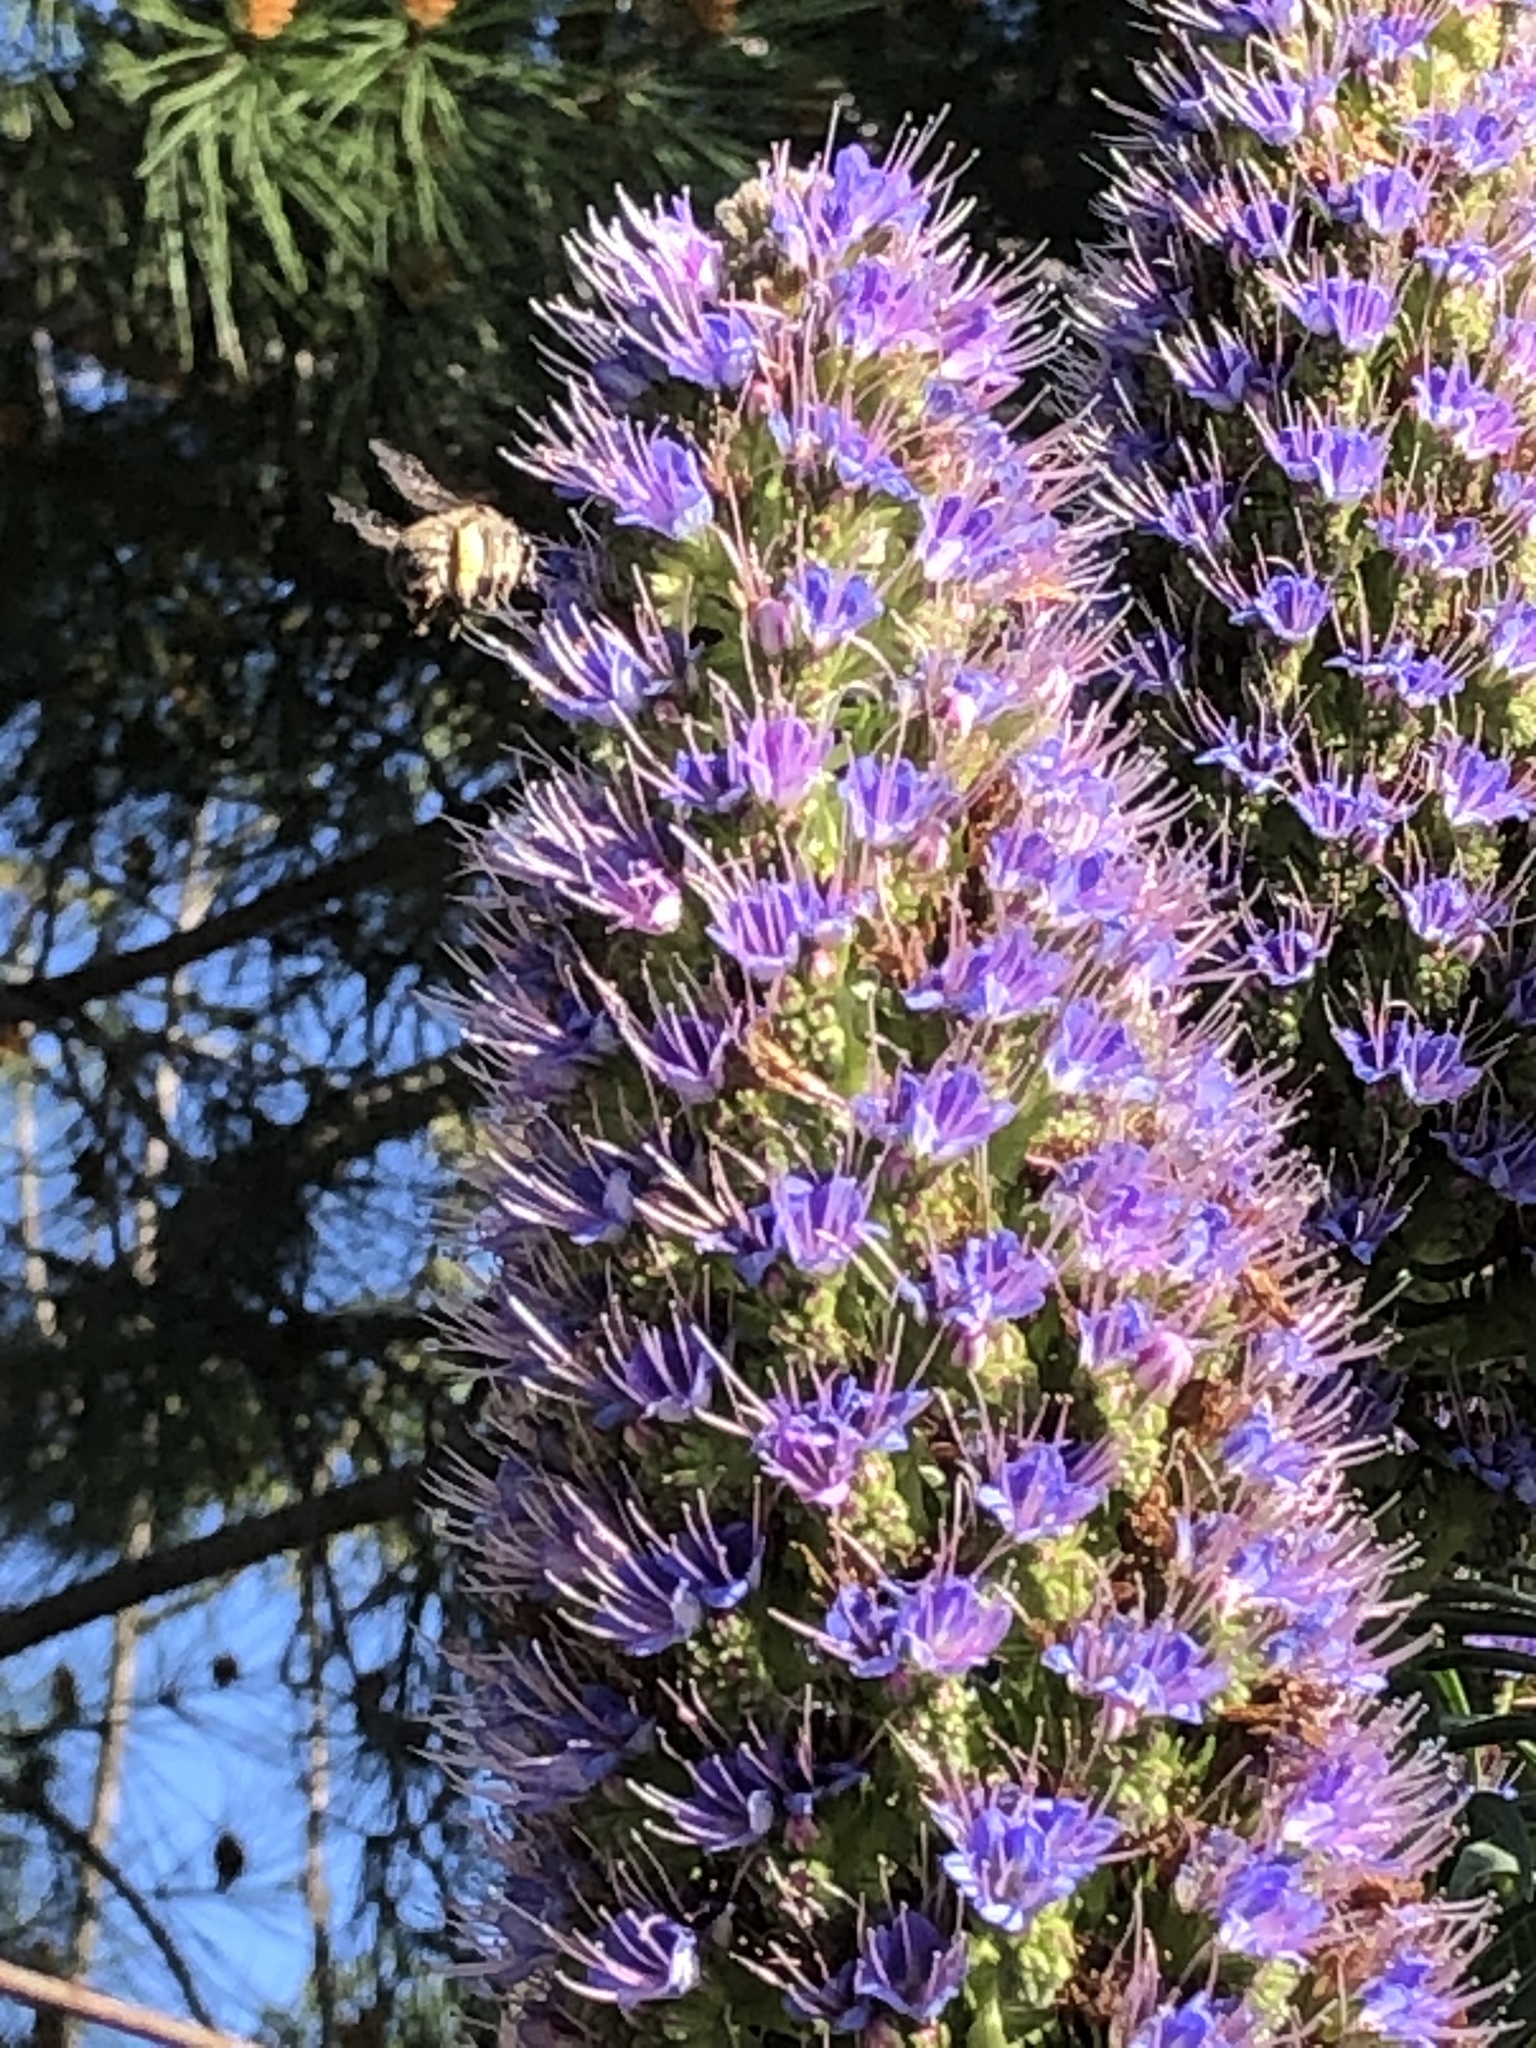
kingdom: Animalia
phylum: Arthropoda
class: Insecta
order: Hymenoptera
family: Apidae
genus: Habropoda
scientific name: Habropoda depressa
